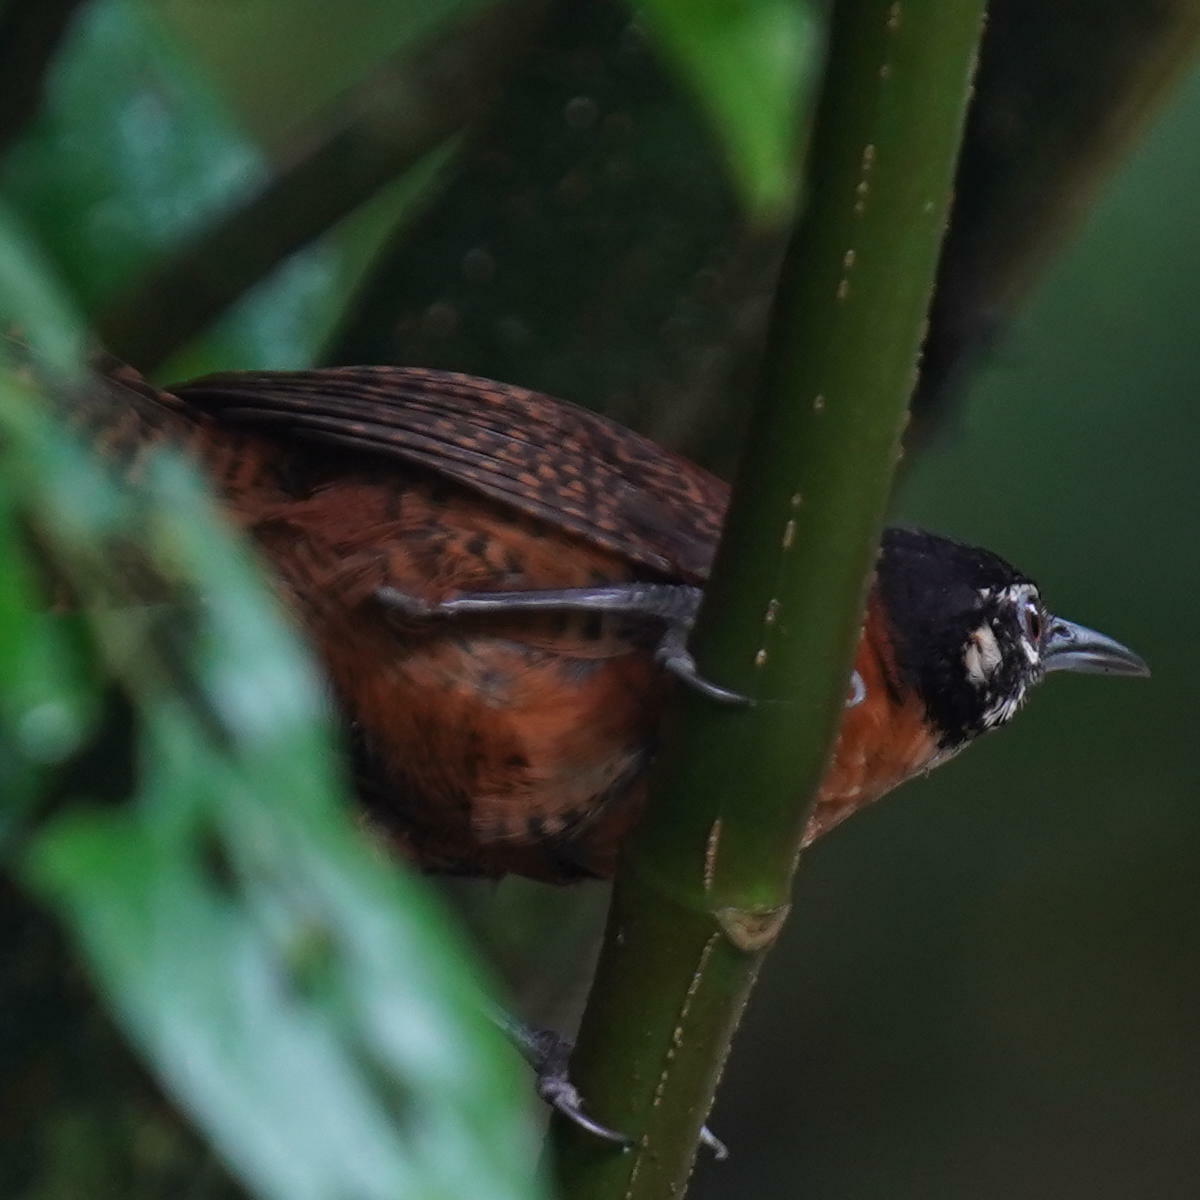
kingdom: Animalia
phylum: Chordata
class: Aves
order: Passeriformes
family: Troglodytidae
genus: Cantorchilus
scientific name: Cantorchilus nigricapillus
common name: Bay wren
